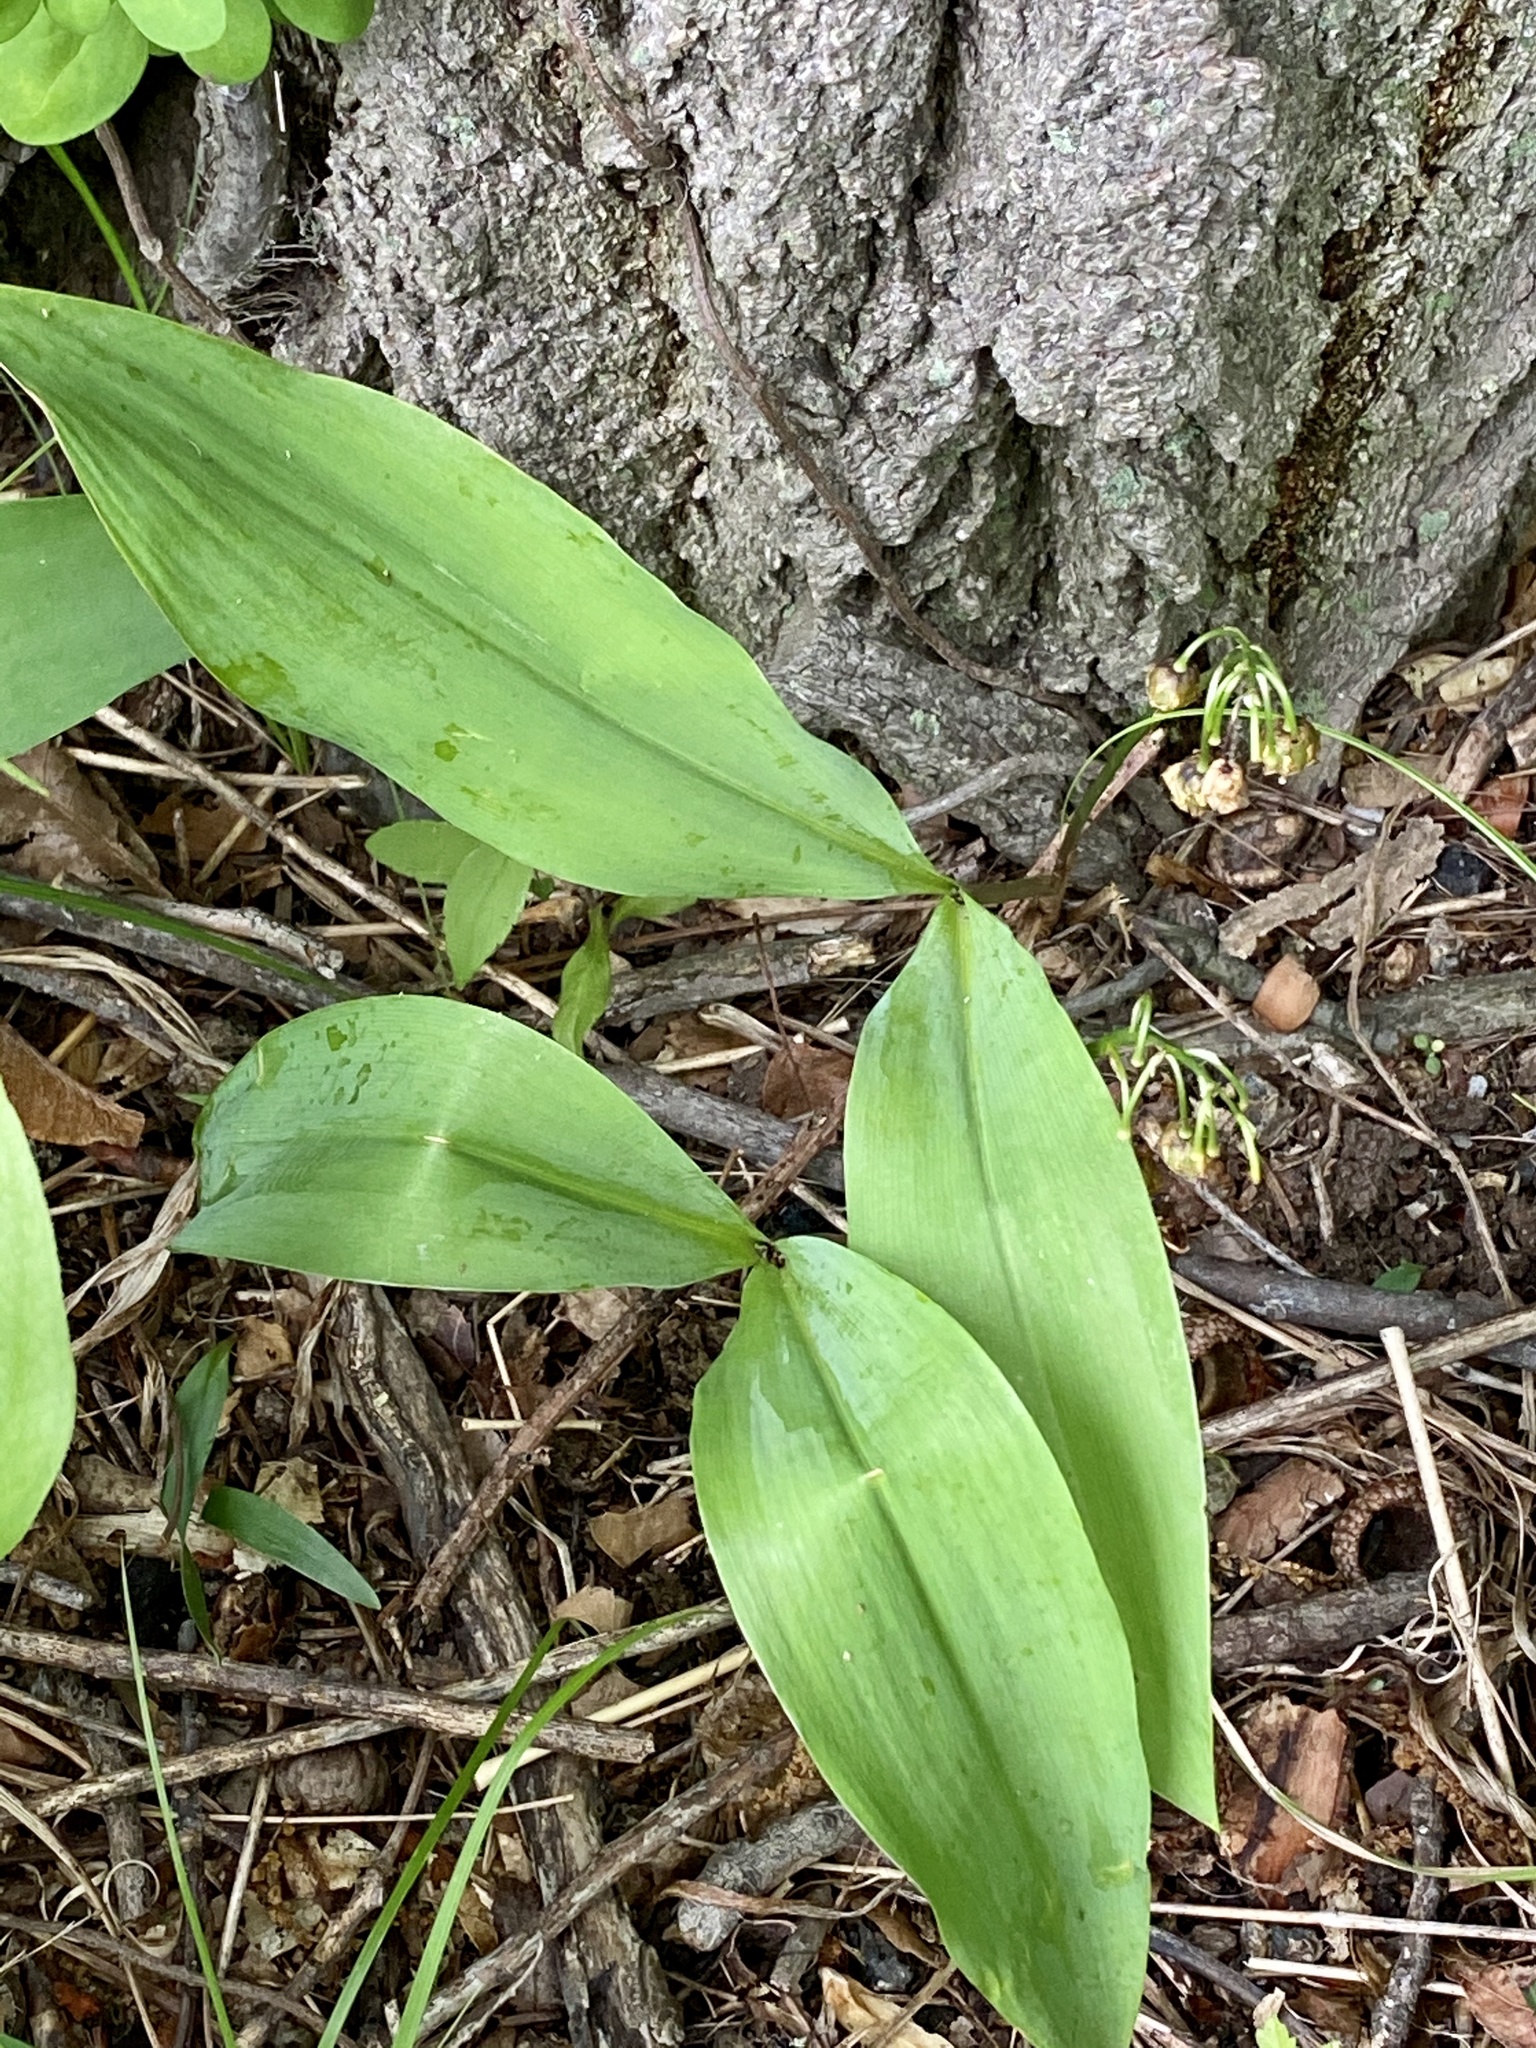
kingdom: Plantae
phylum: Tracheophyta
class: Liliopsida
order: Asparagales
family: Asparagaceae
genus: Convallaria
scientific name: Convallaria majalis
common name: Lily-of-the-valley
